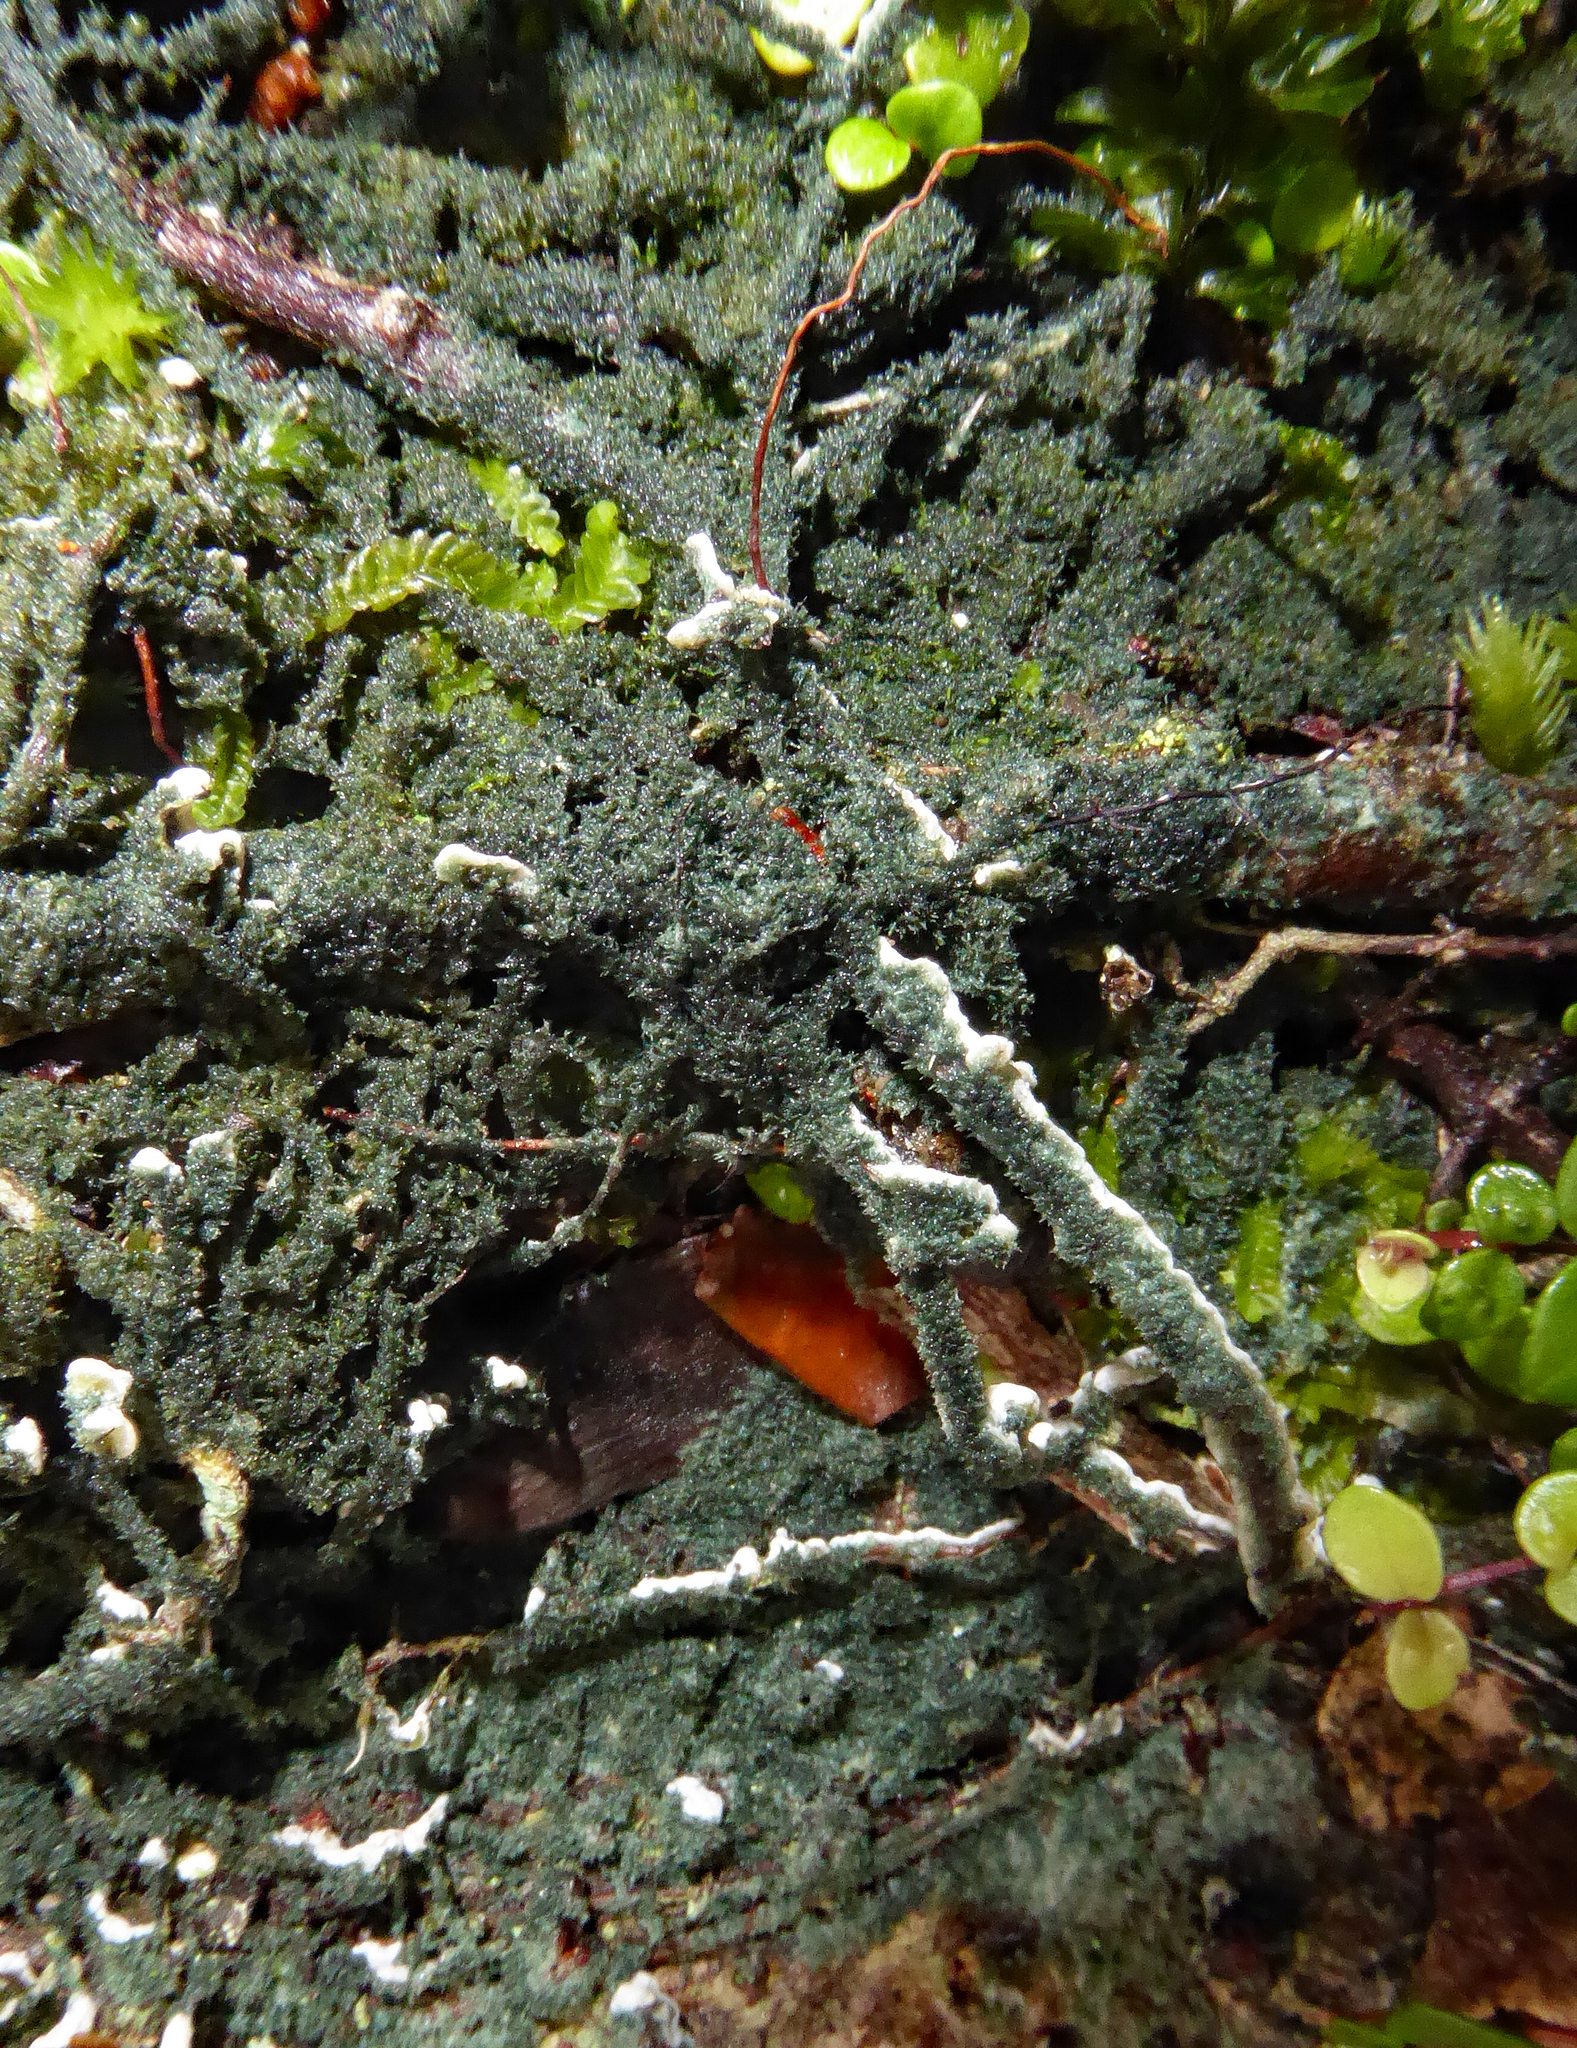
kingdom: Fungi
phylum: Basidiomycota
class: Agaricomycetes
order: Agaricales
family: Hygrophoraceae
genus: Dictyonema
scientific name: Dictyonema thelephora
